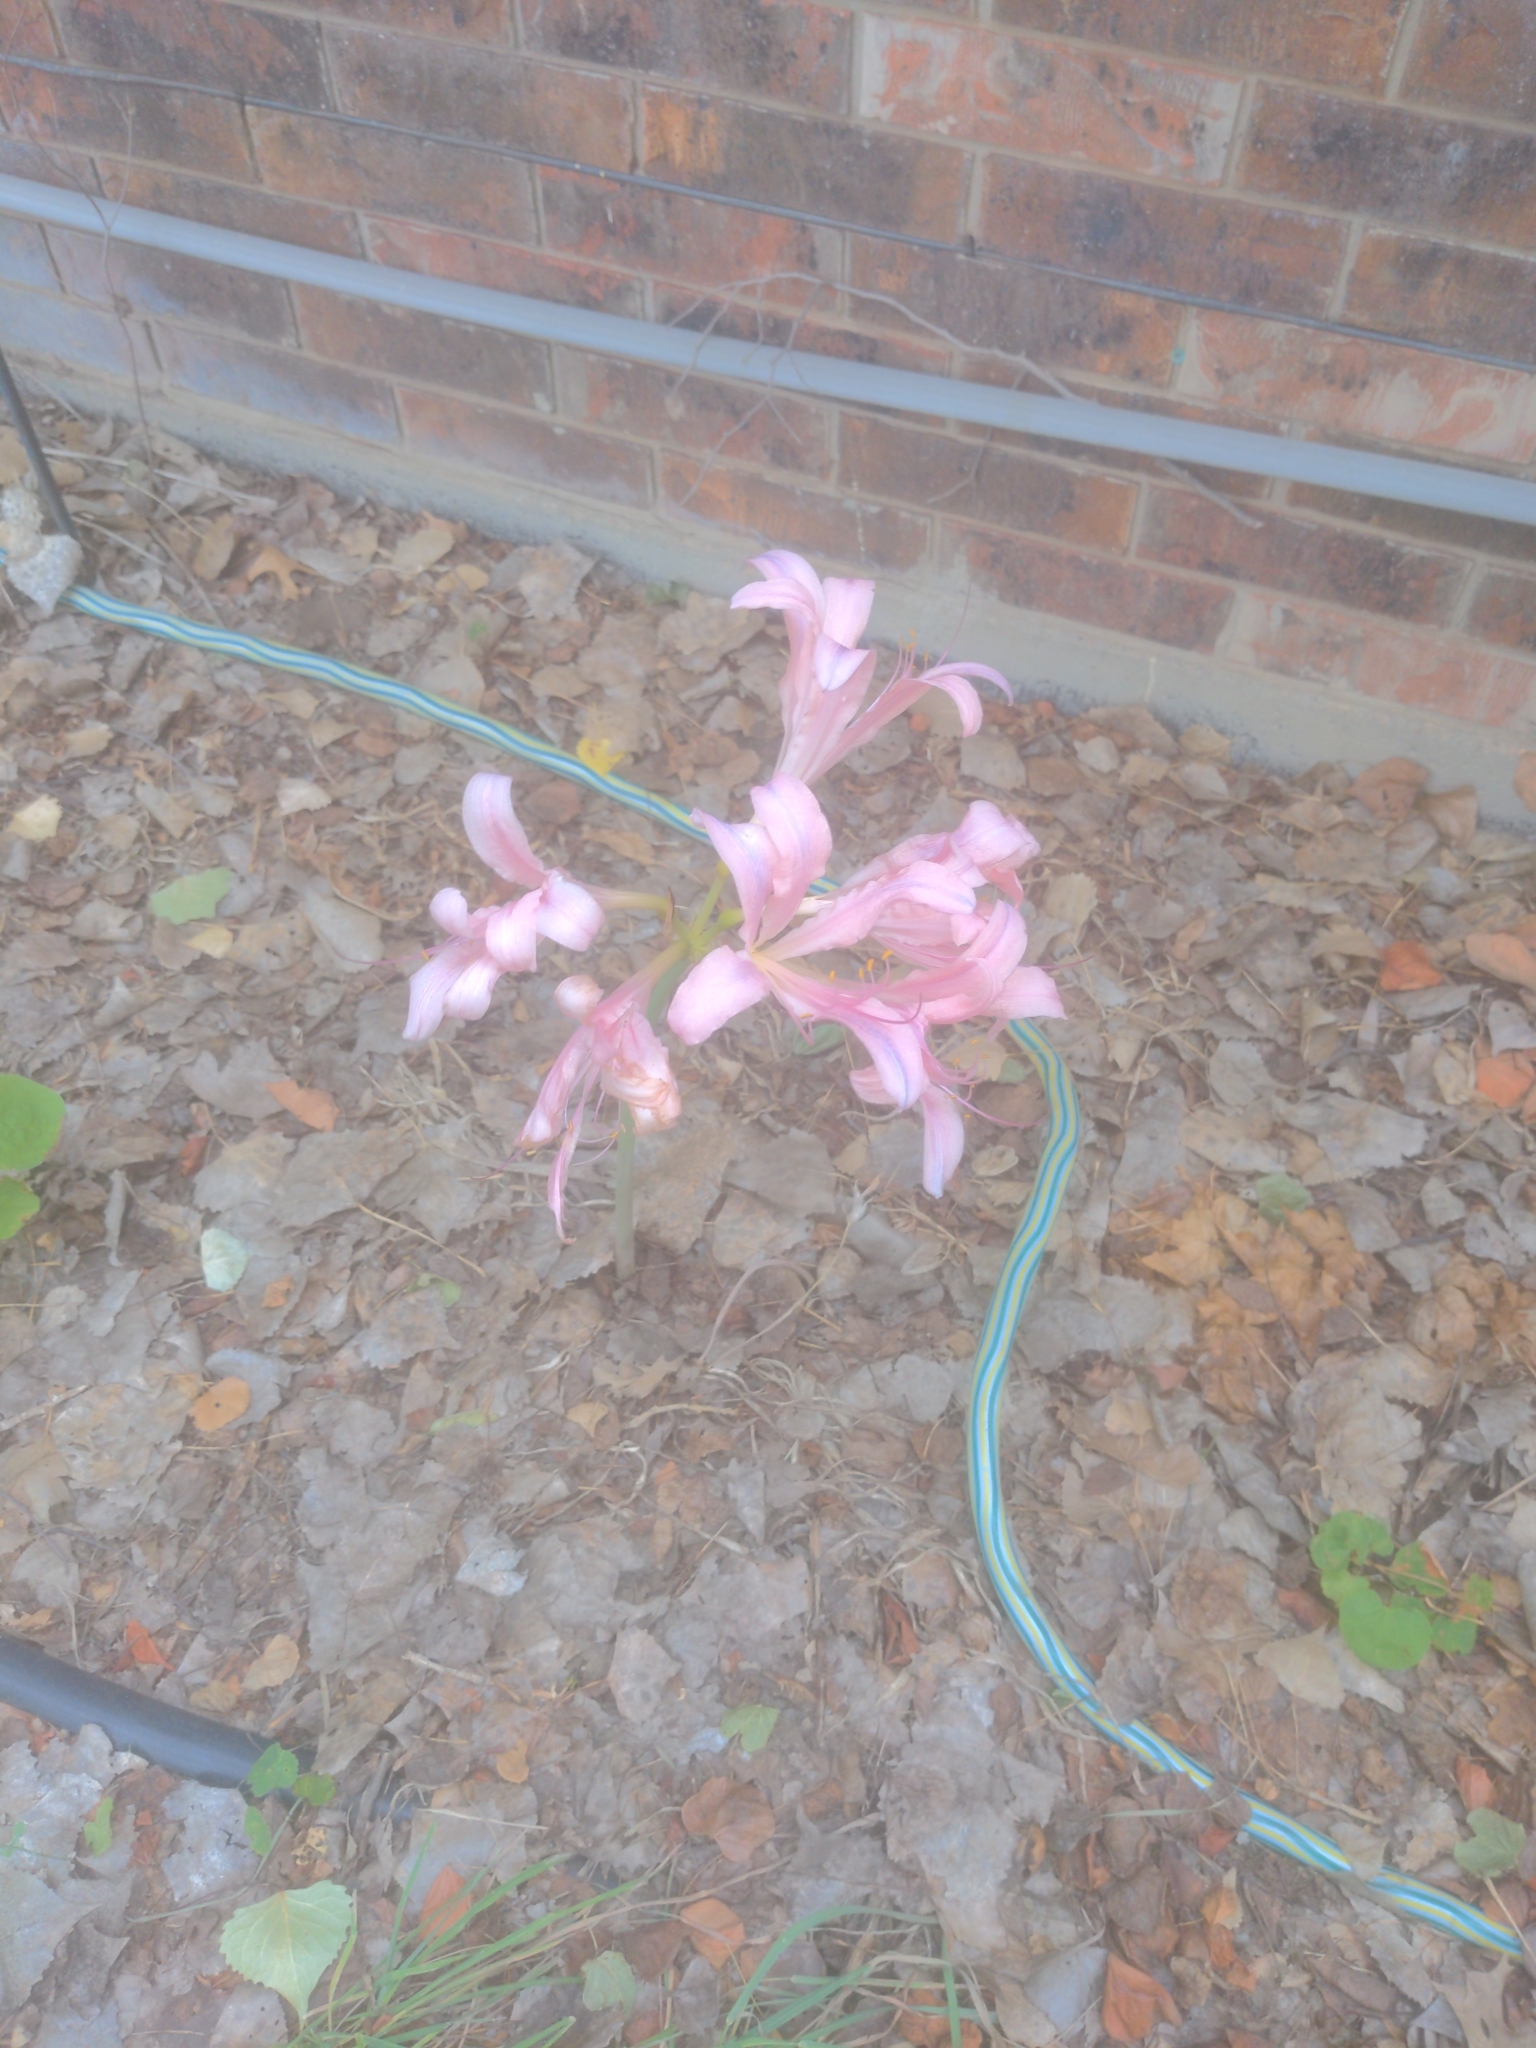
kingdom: Plantae
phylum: Tracheophyta
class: Liliopsida
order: Asparagales
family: Amaryllidaceae
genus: Lycoris
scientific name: Lycoris squamigera
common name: Magic-lily
